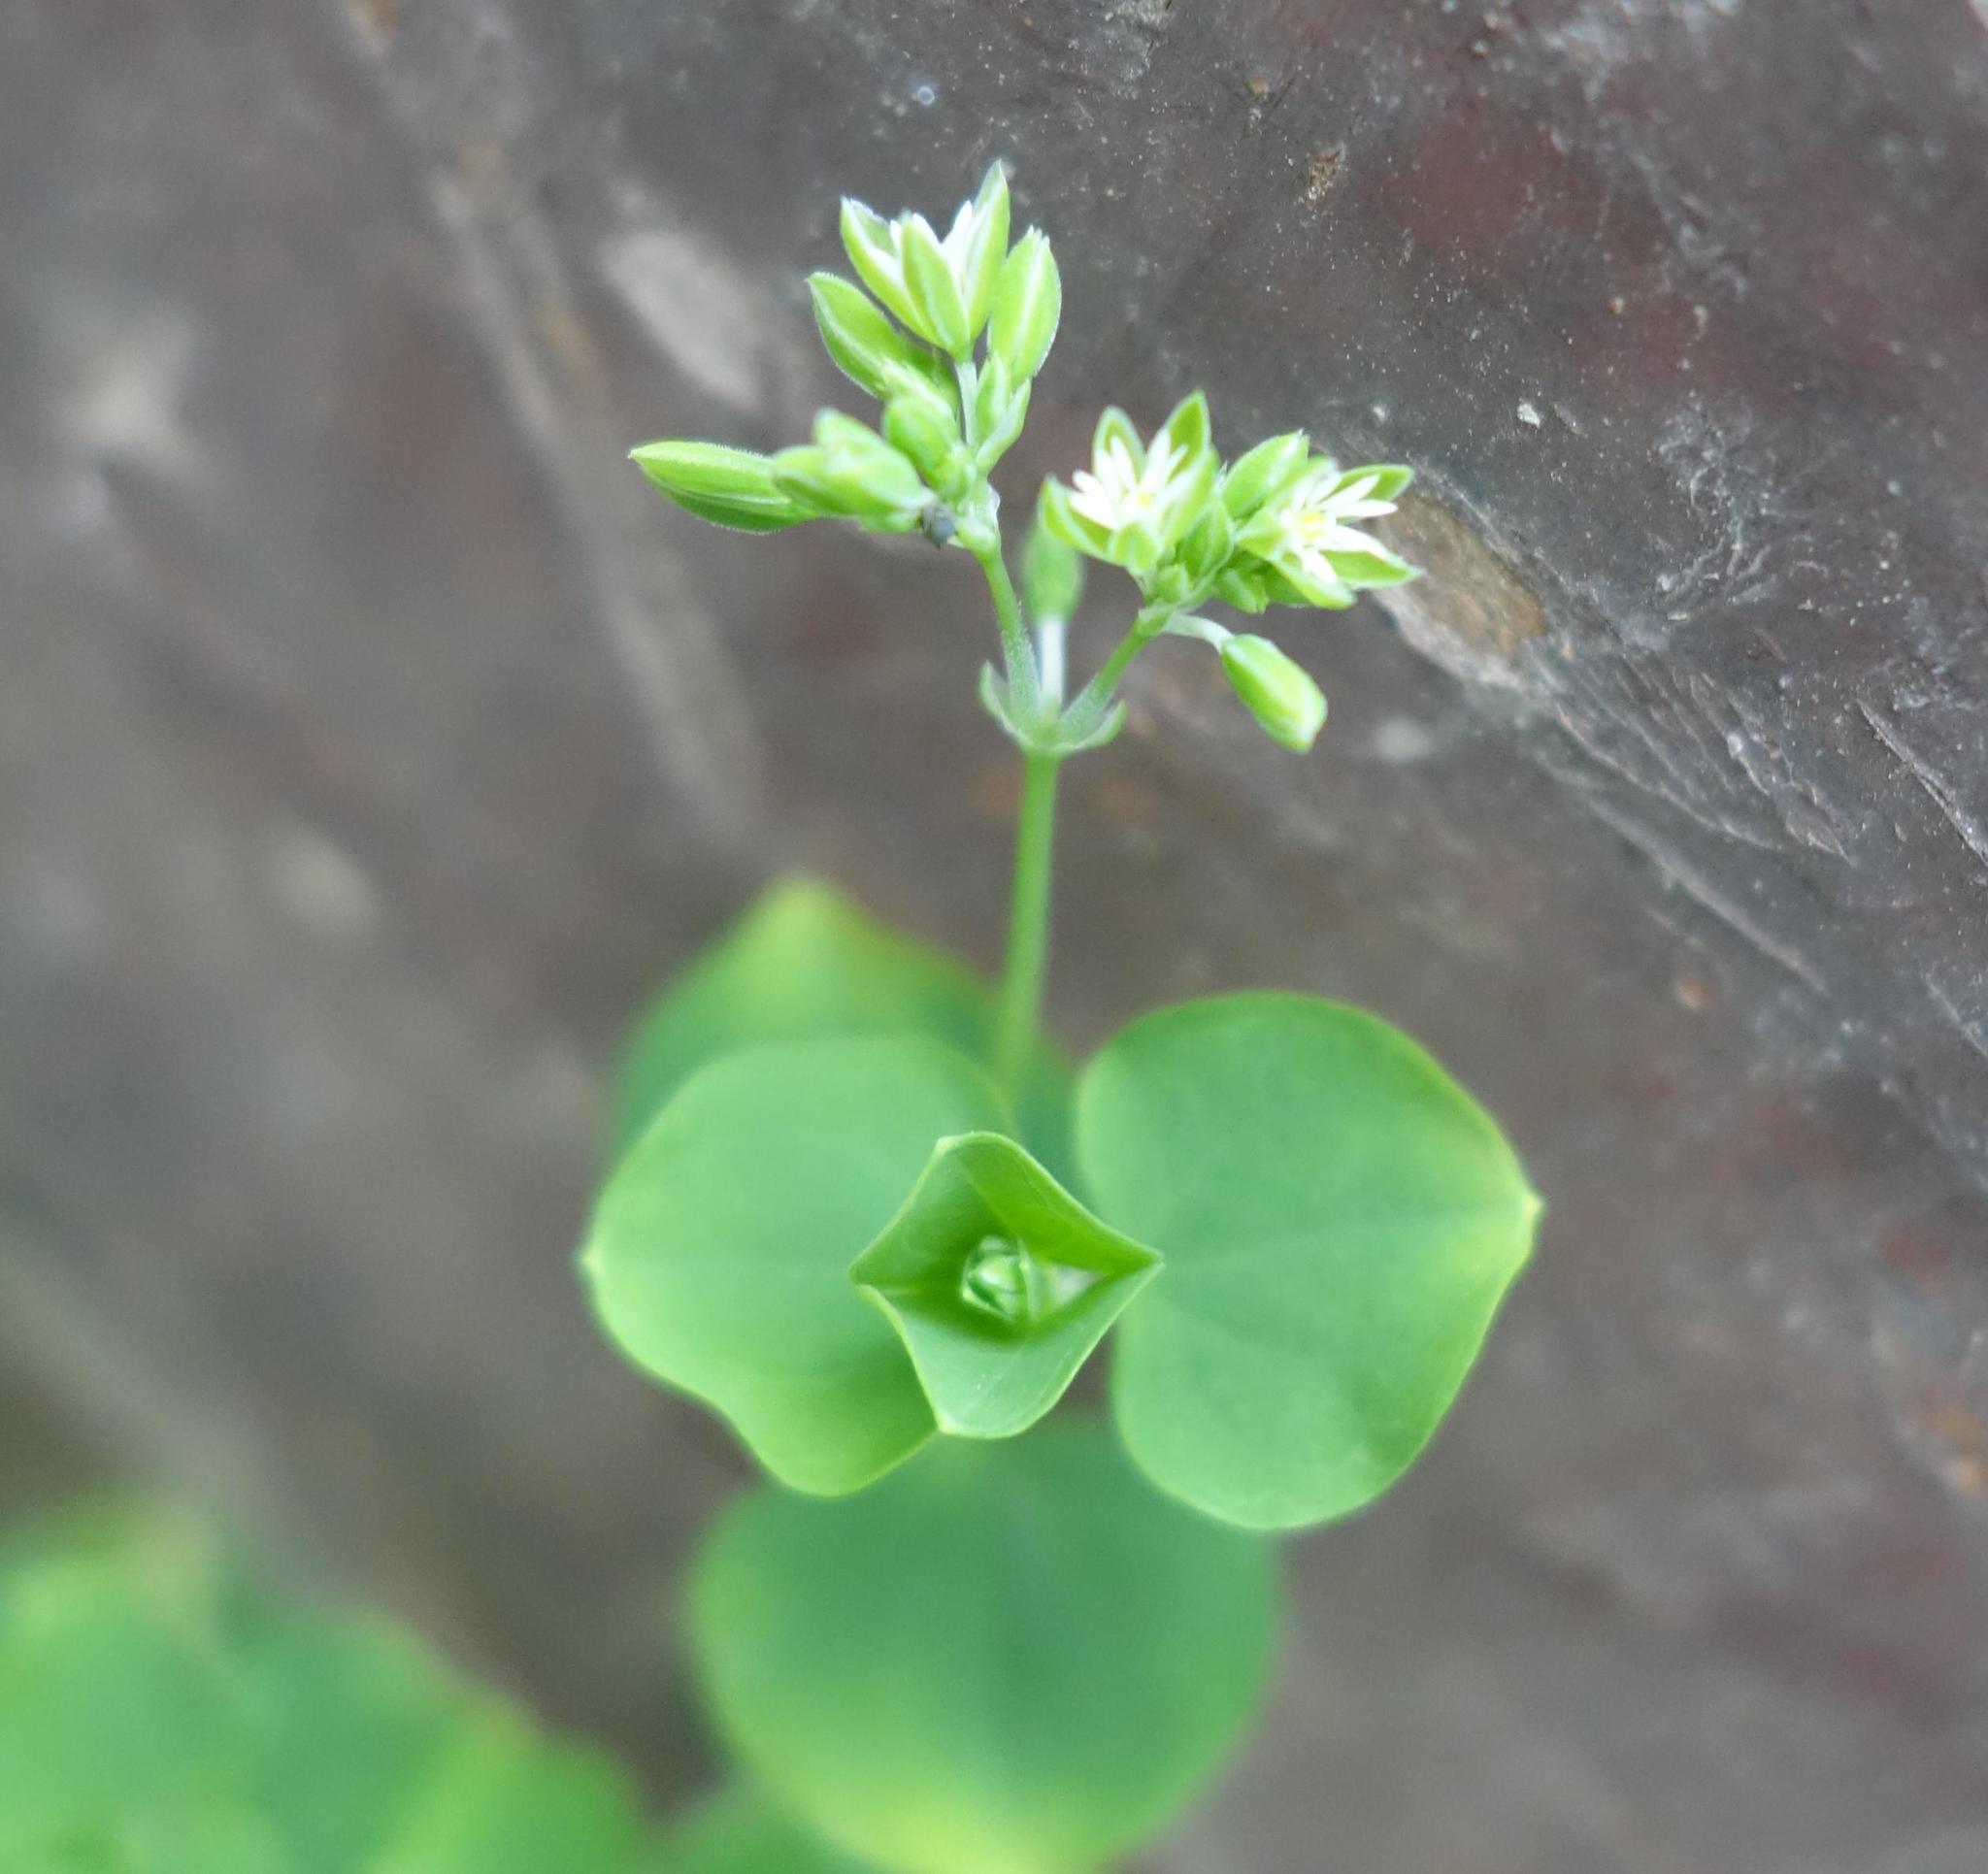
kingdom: Plantae
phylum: Tracheophyta
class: Magnoliopsida
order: Caryophyllales
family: Caryophyllaceae
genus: Drymaria
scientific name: Drymaria cordata
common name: Whitesnow
